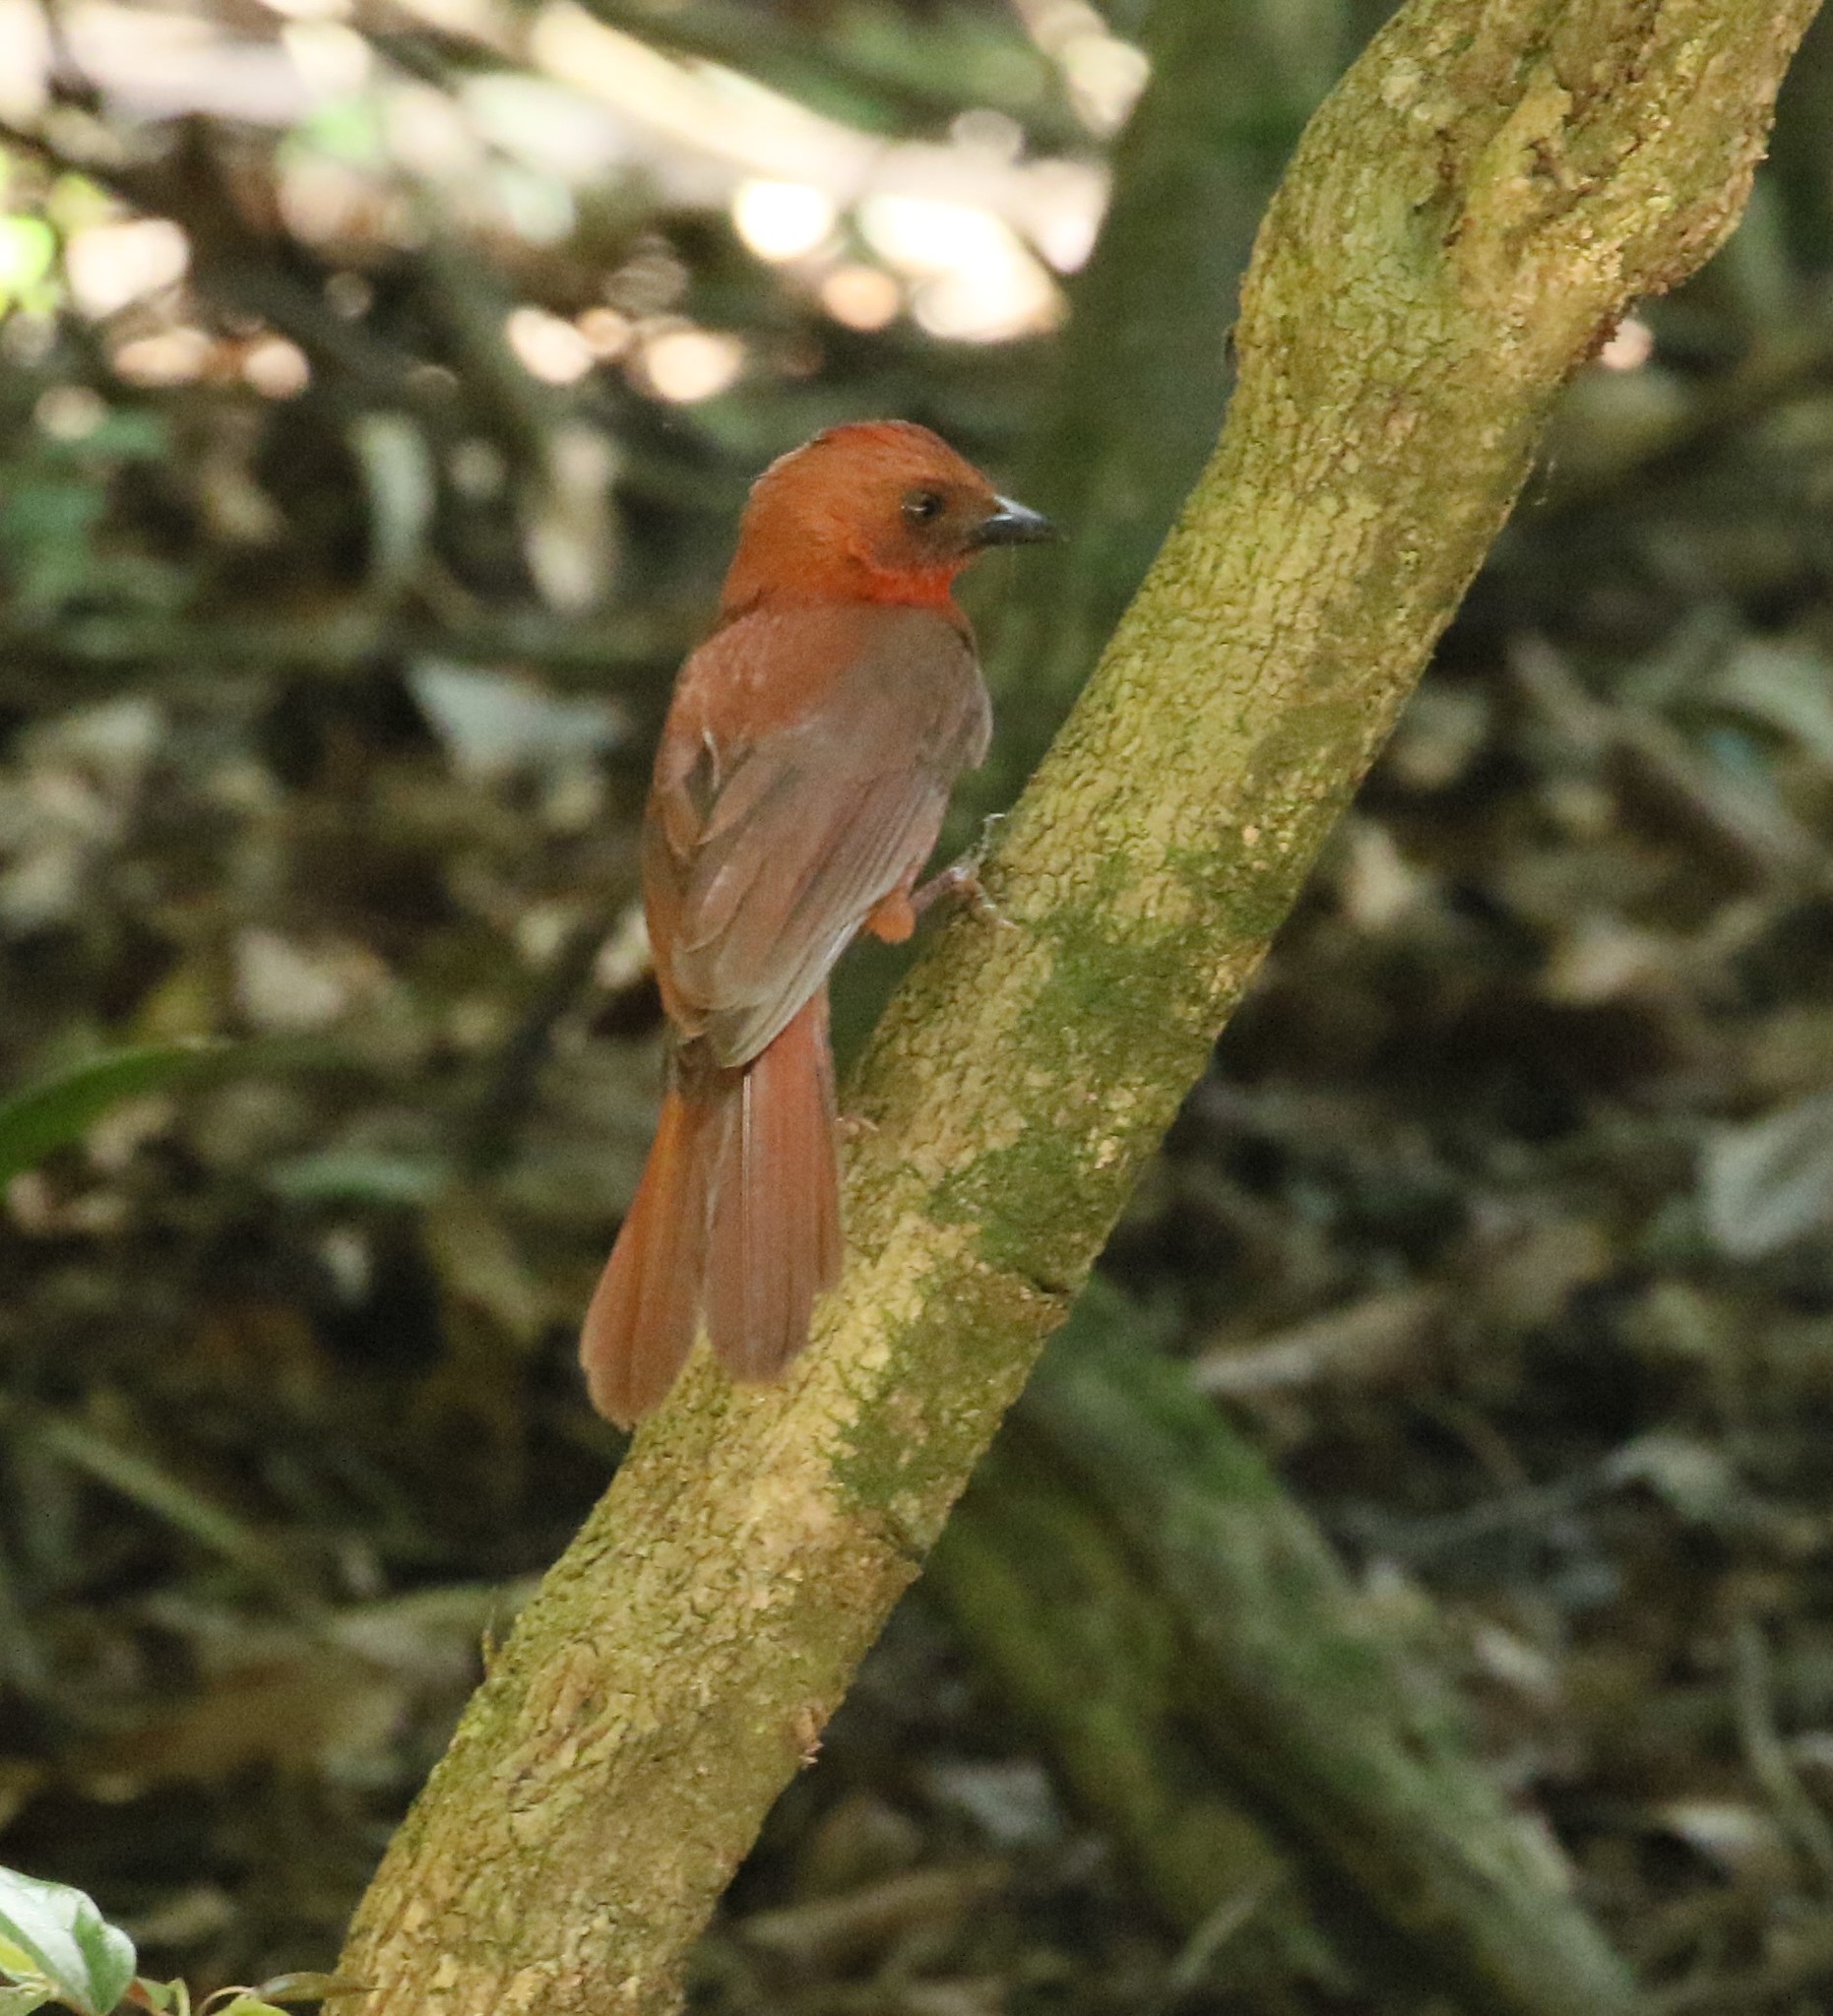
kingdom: Animalia
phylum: Chordata
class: Aves
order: Passeriformes
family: Cardinalidae
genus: Habia
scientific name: Habia fuscicauda
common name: Red-throated ant-tanager
